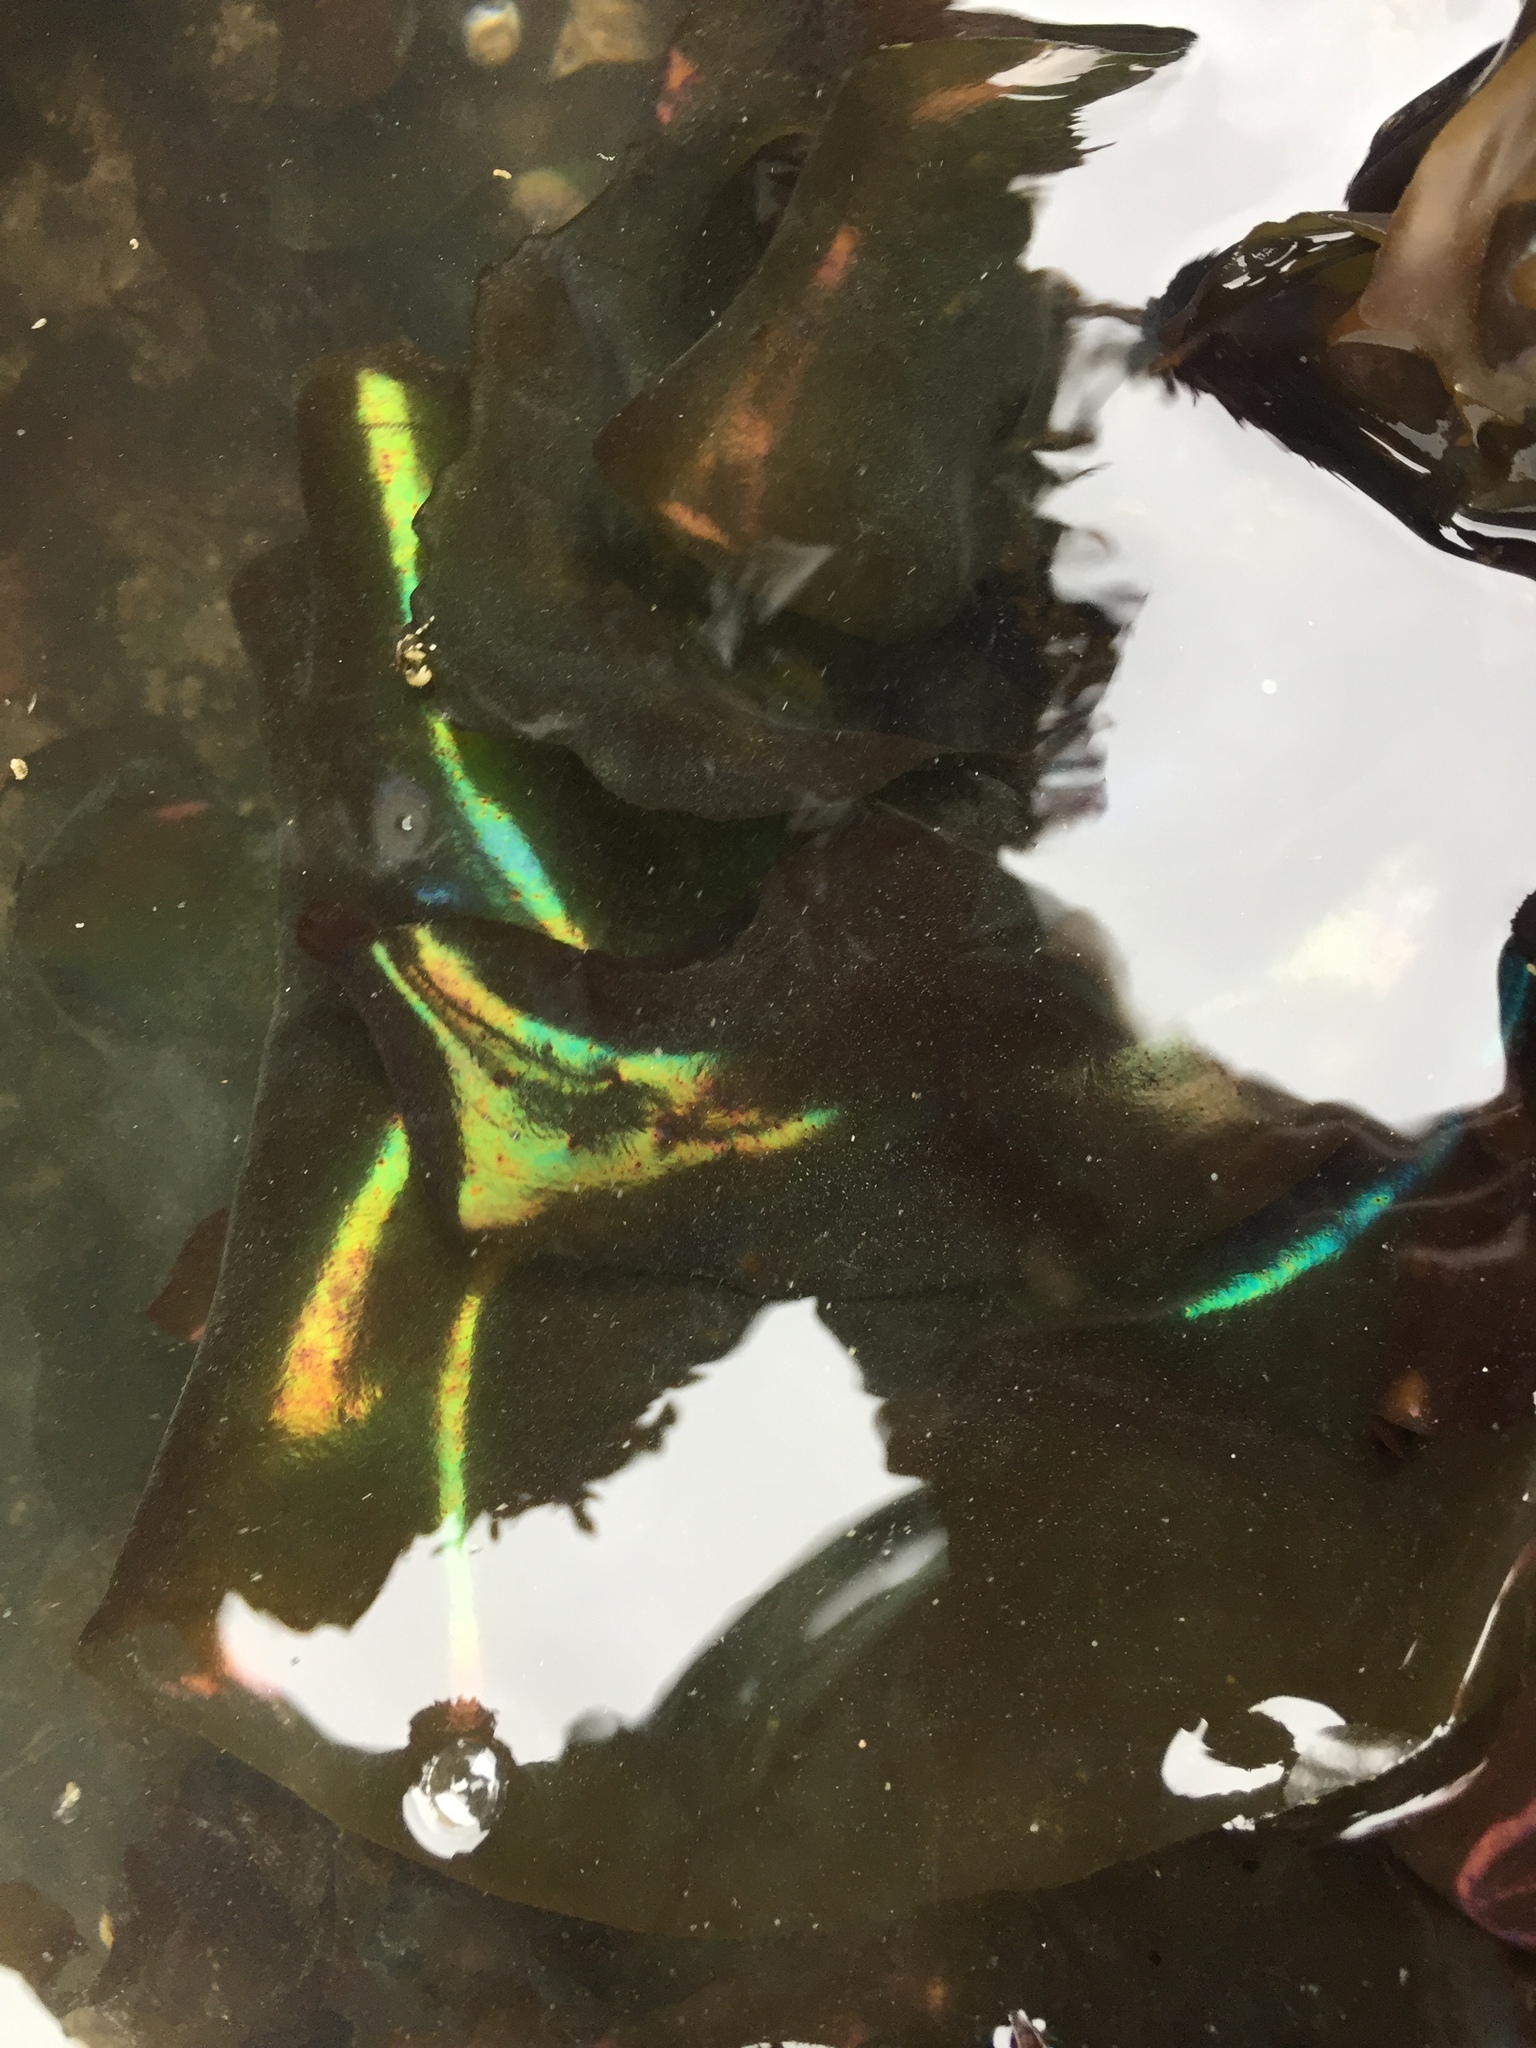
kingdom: Plantae
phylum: Rhodophyta
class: Florideophyceae
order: Gigartinales
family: Gigartinaceae
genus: Mazzaella
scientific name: Mazzaella splendens
